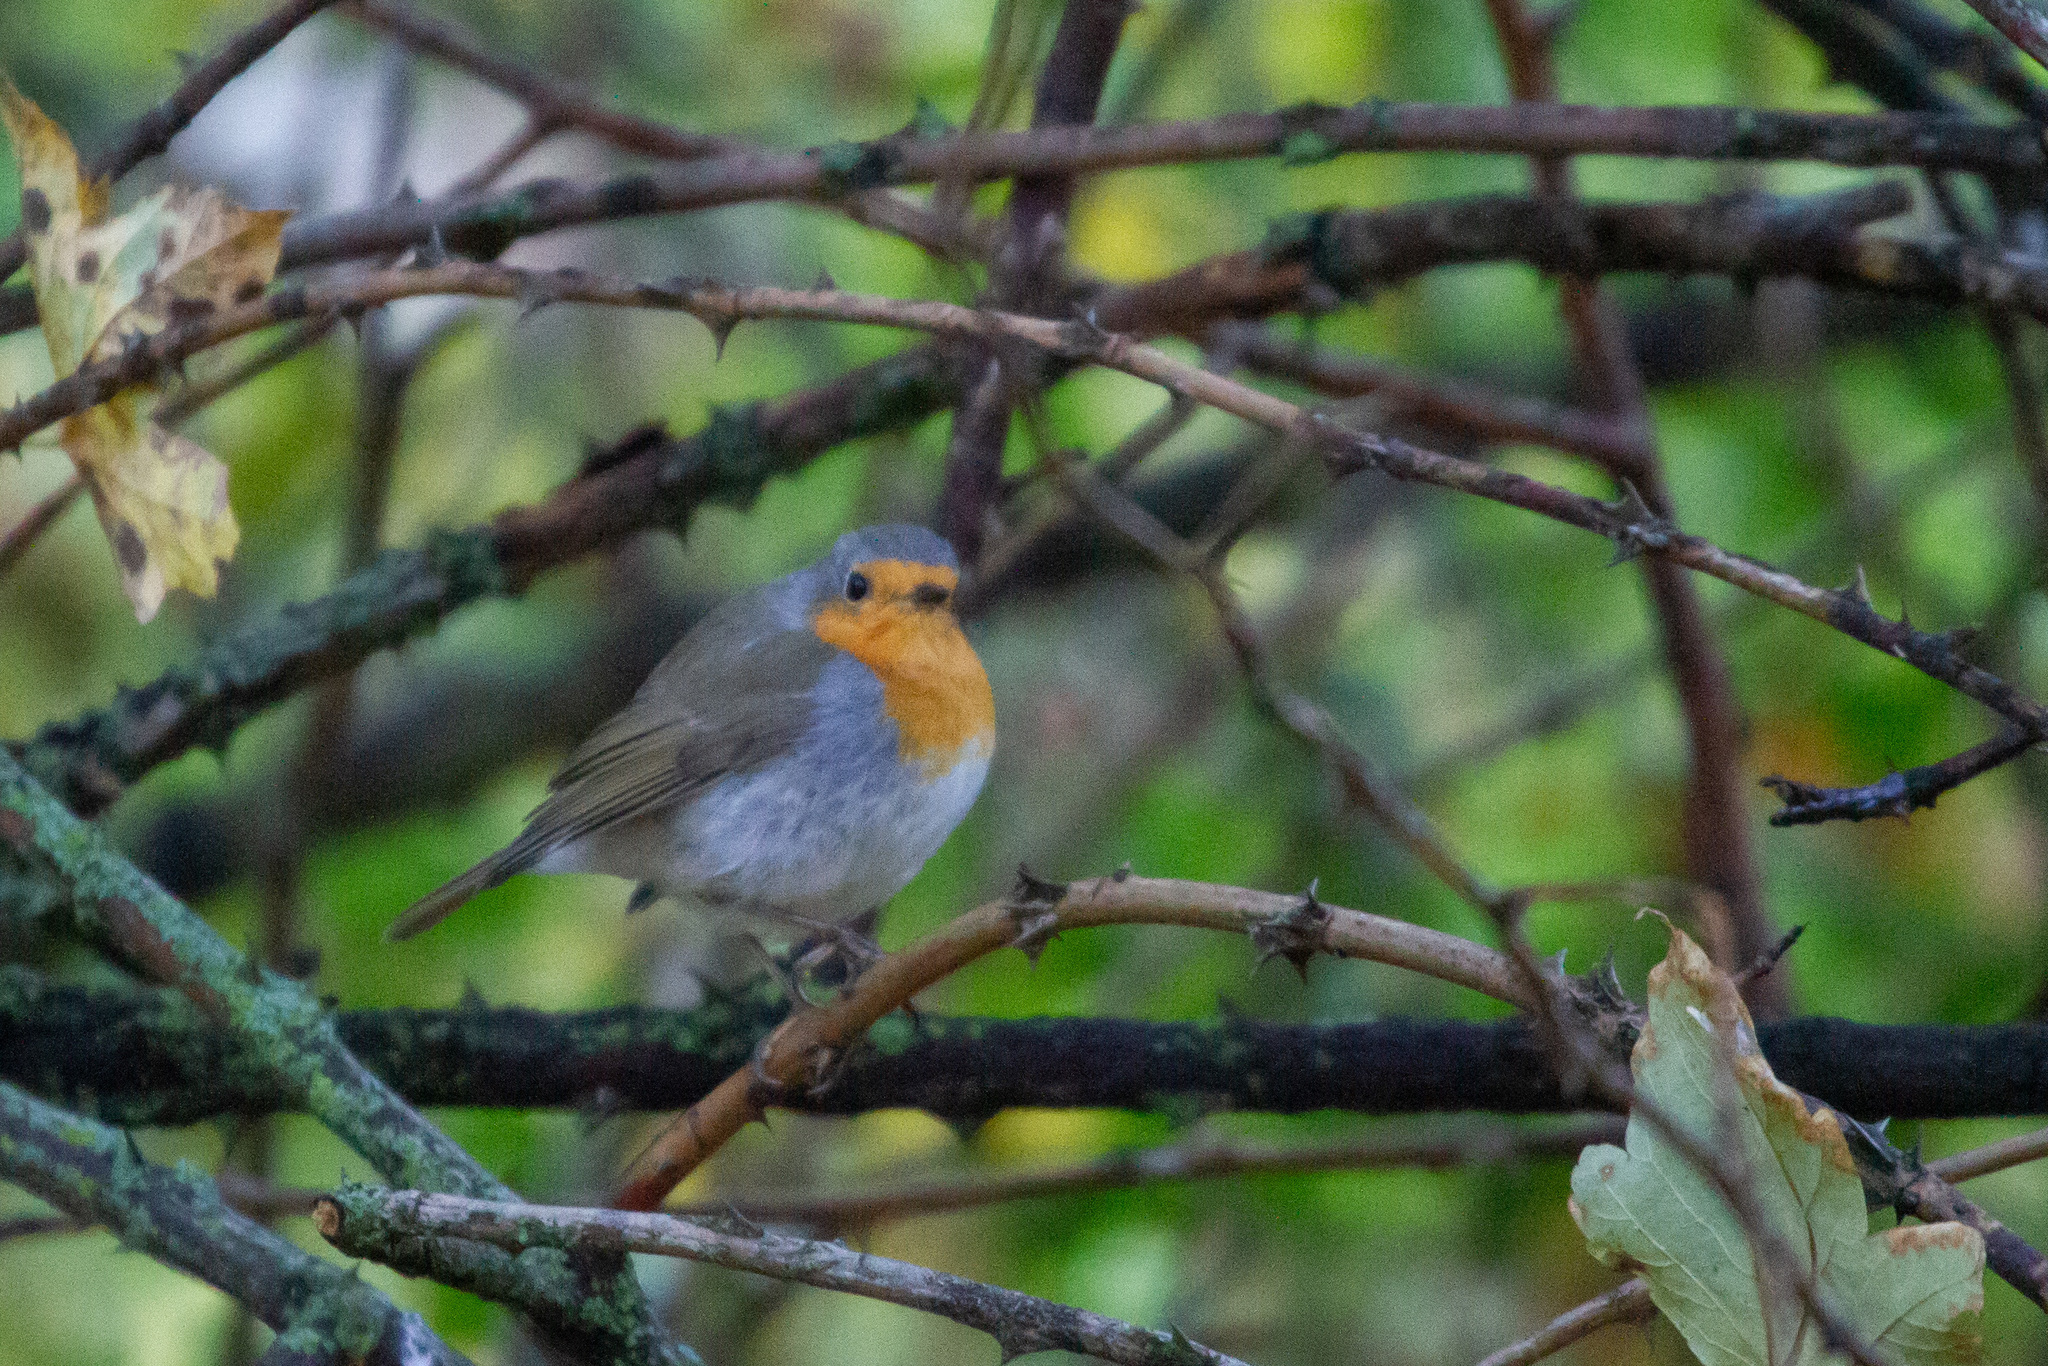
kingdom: Animalia
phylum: Chordata
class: Aves
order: Passeriformes
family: Muscicapidae
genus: Erithacus
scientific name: Erithacus rubecula
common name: European robin
